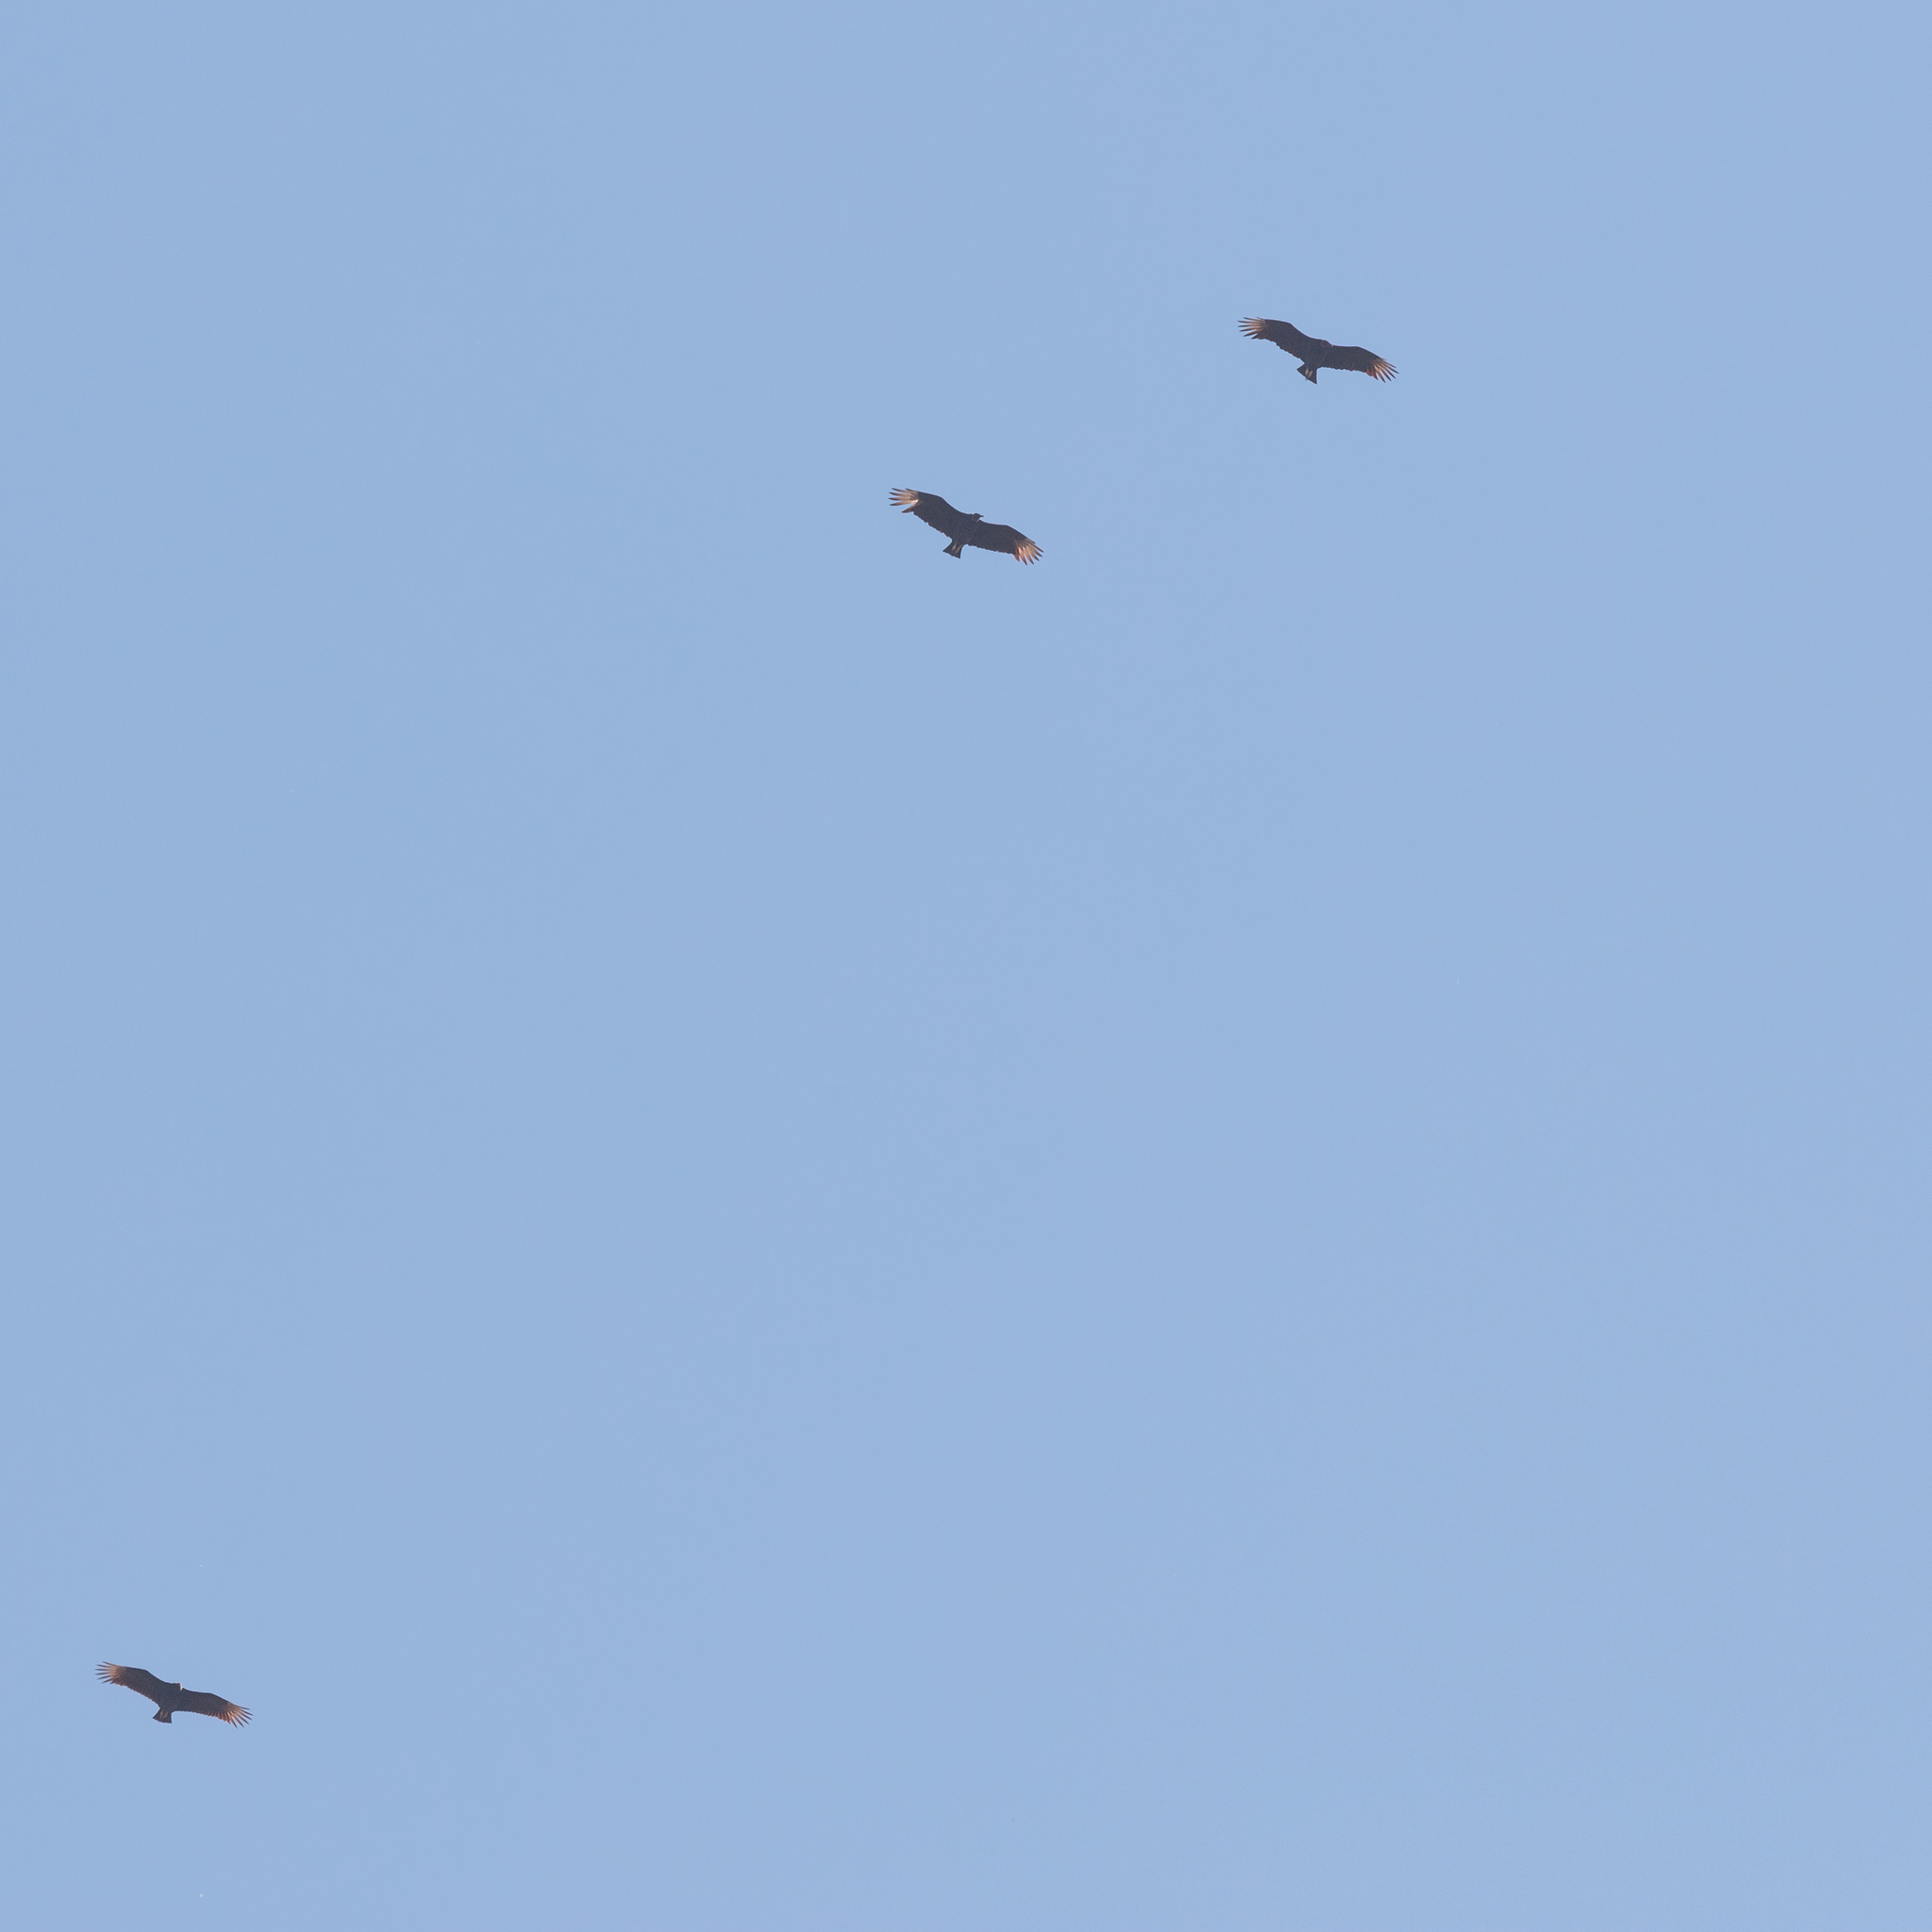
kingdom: Animalia
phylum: Chordata
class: Aves
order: Accipitriformes
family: Cathartidae
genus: Coragyps
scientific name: Coragyps atratus
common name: Black vulture
